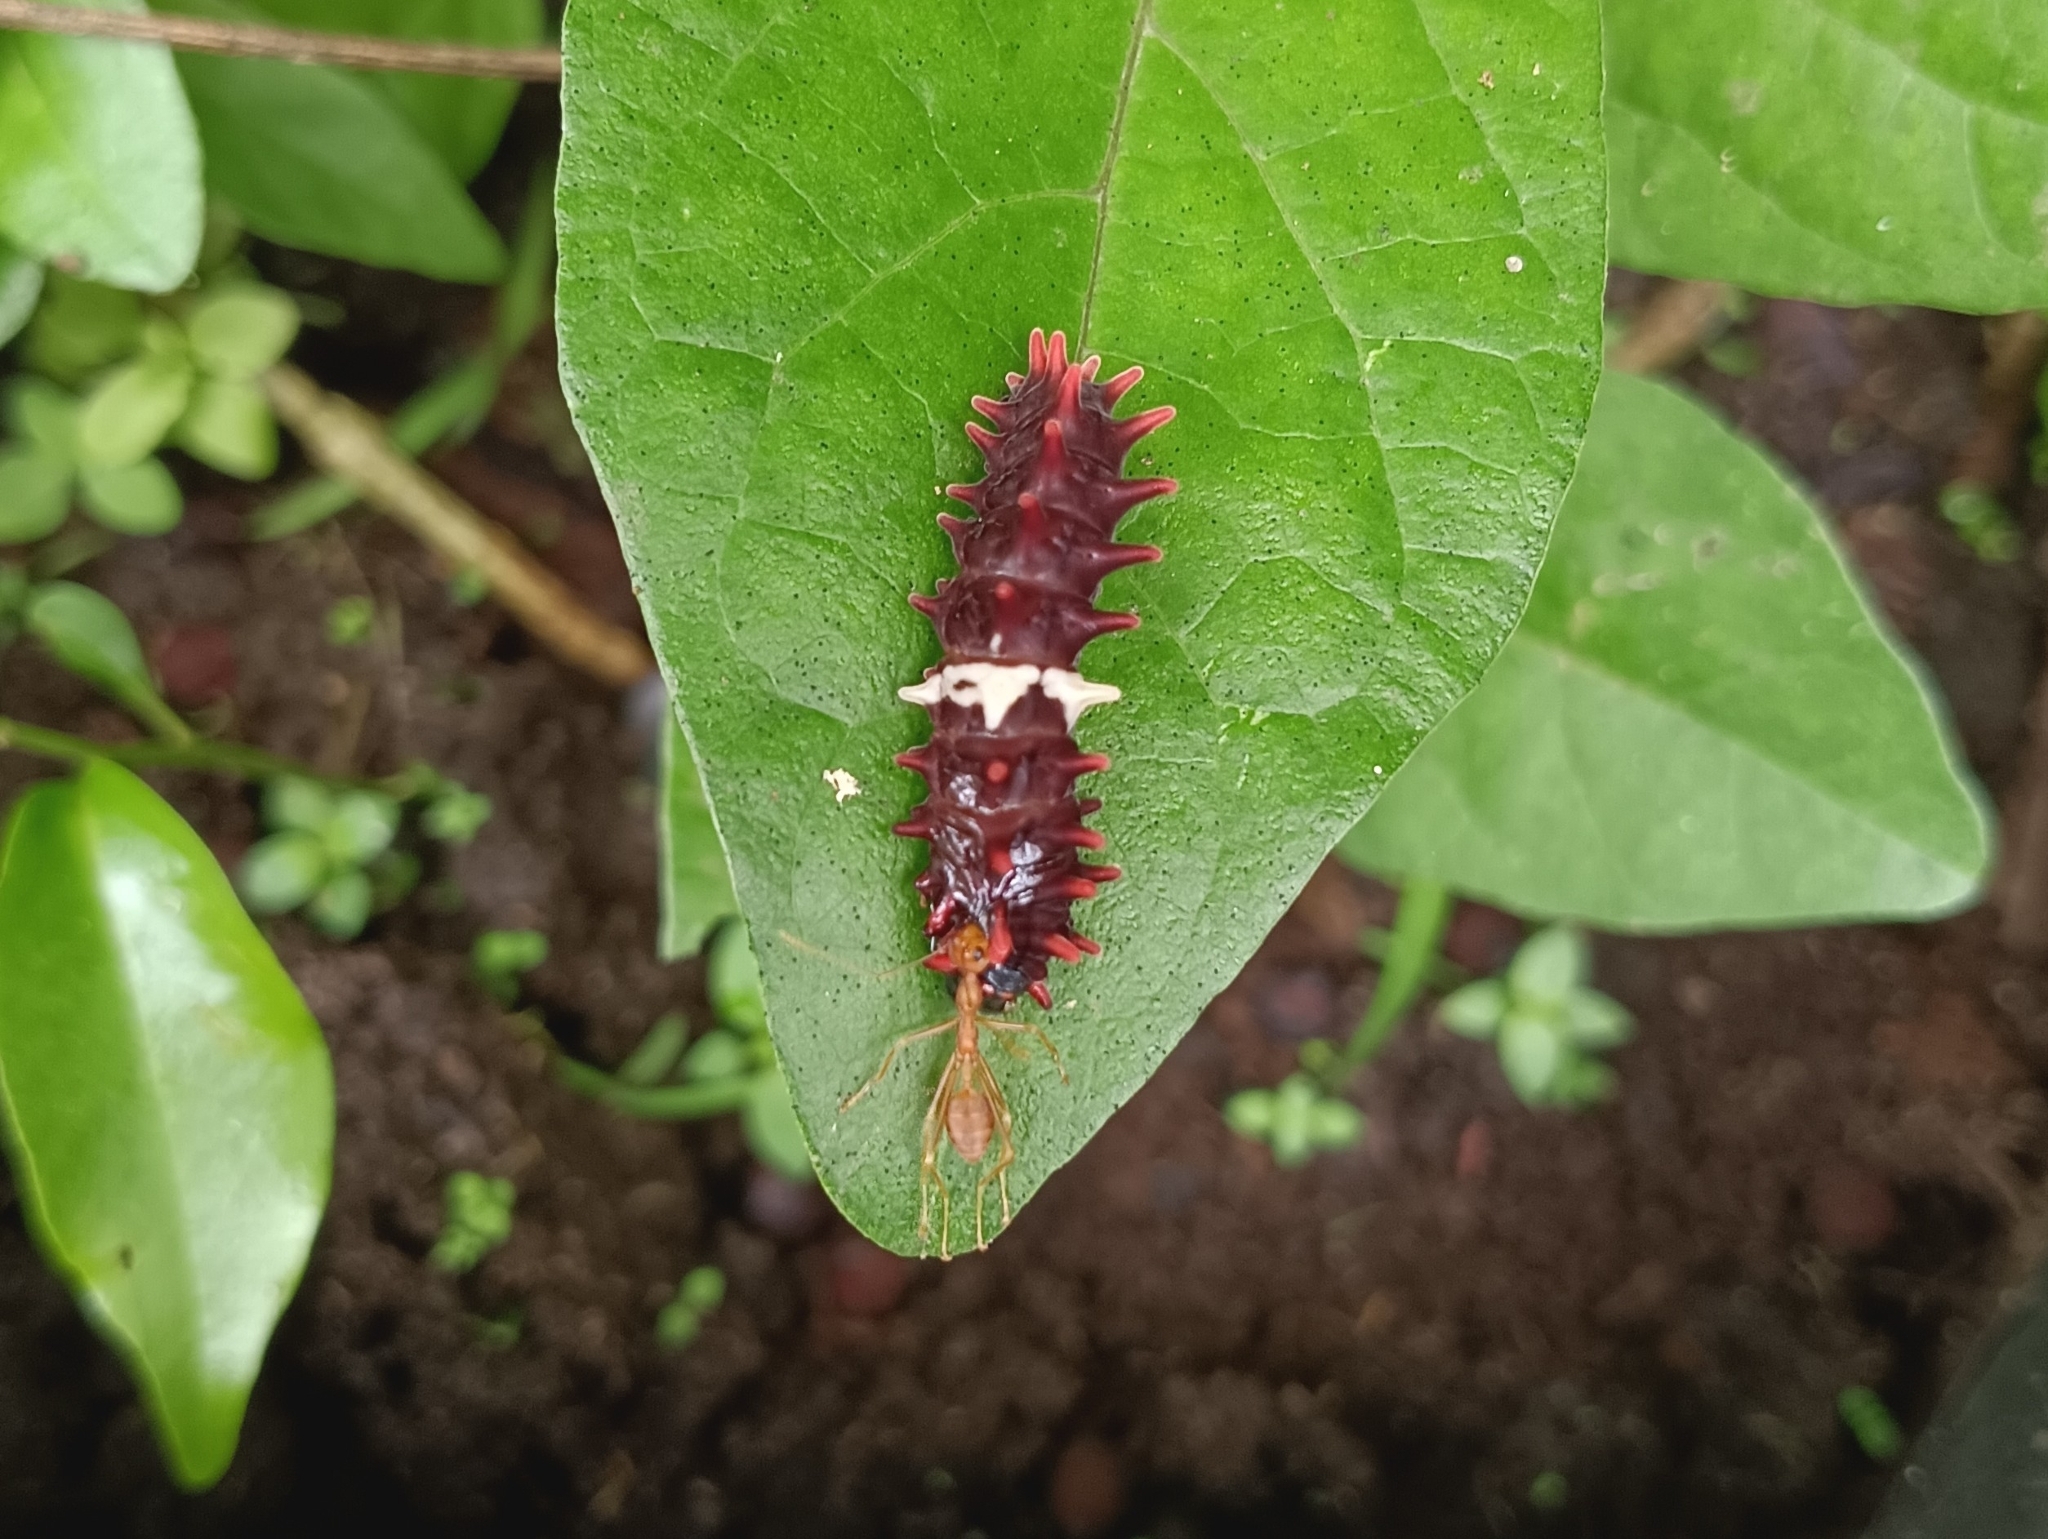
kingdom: Animalia
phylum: Arthropoda
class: Insecta
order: Lepidoptera
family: Papilionidae
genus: Pachliopta
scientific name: Pachliopta aristolochiae
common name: Common rose
